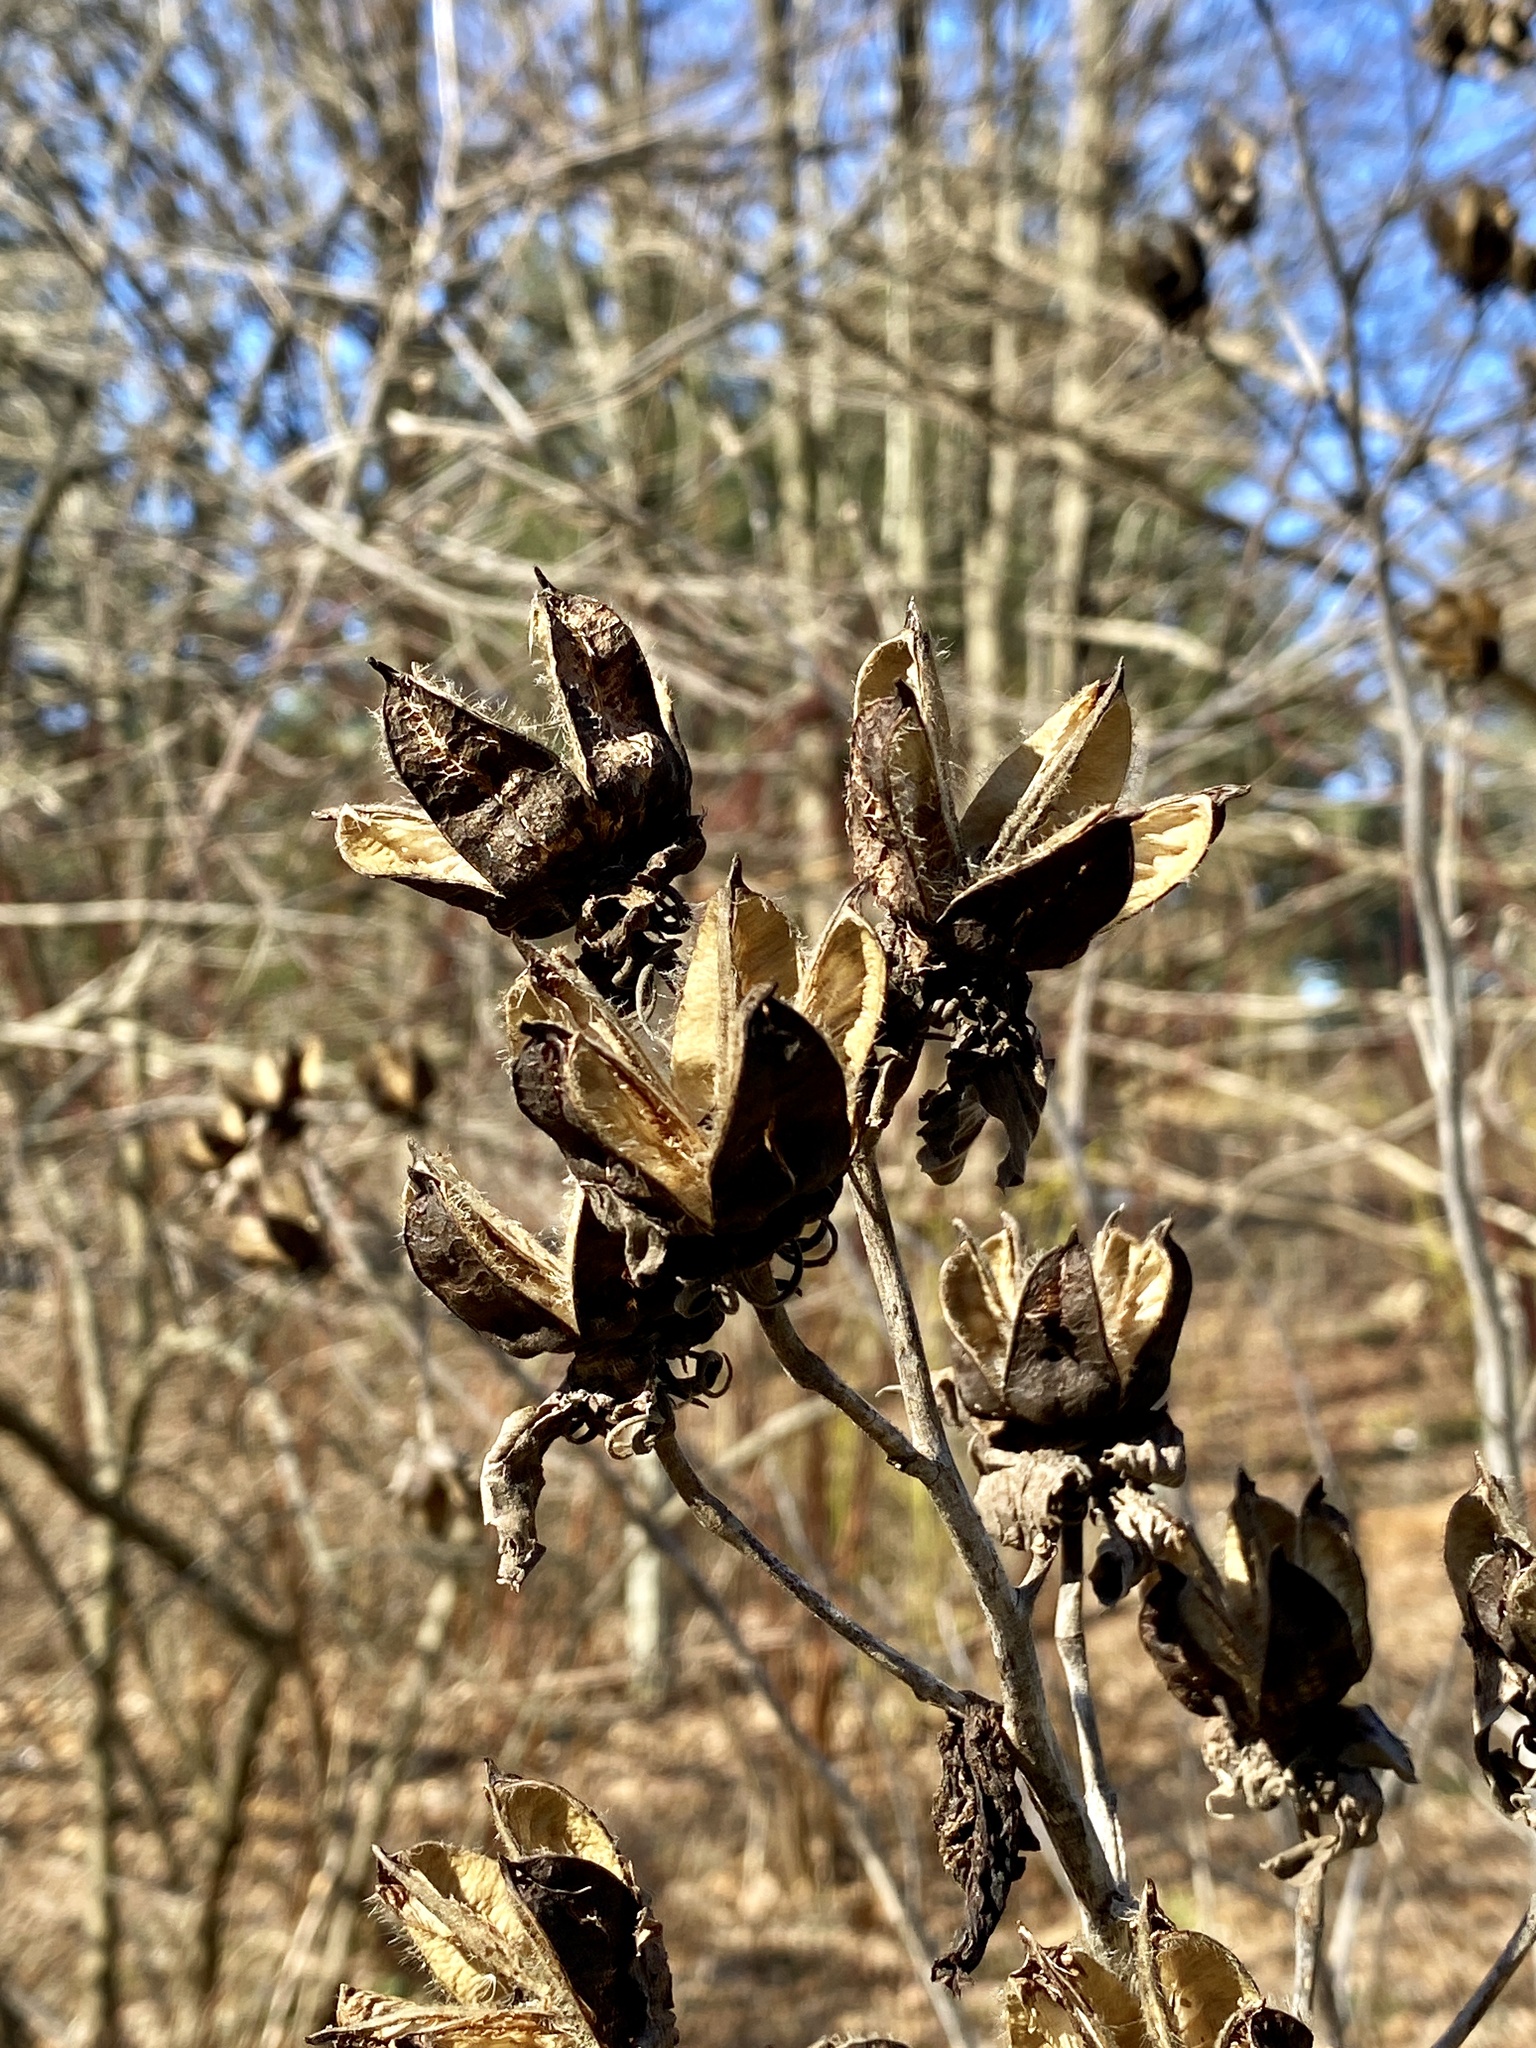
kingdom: Plantae
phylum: Tracheophyta
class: Magnoliopsida
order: Malvales
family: Malvaceae
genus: Hibiscus
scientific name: Hibiscus moscheutos
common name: Common rose-mallow
